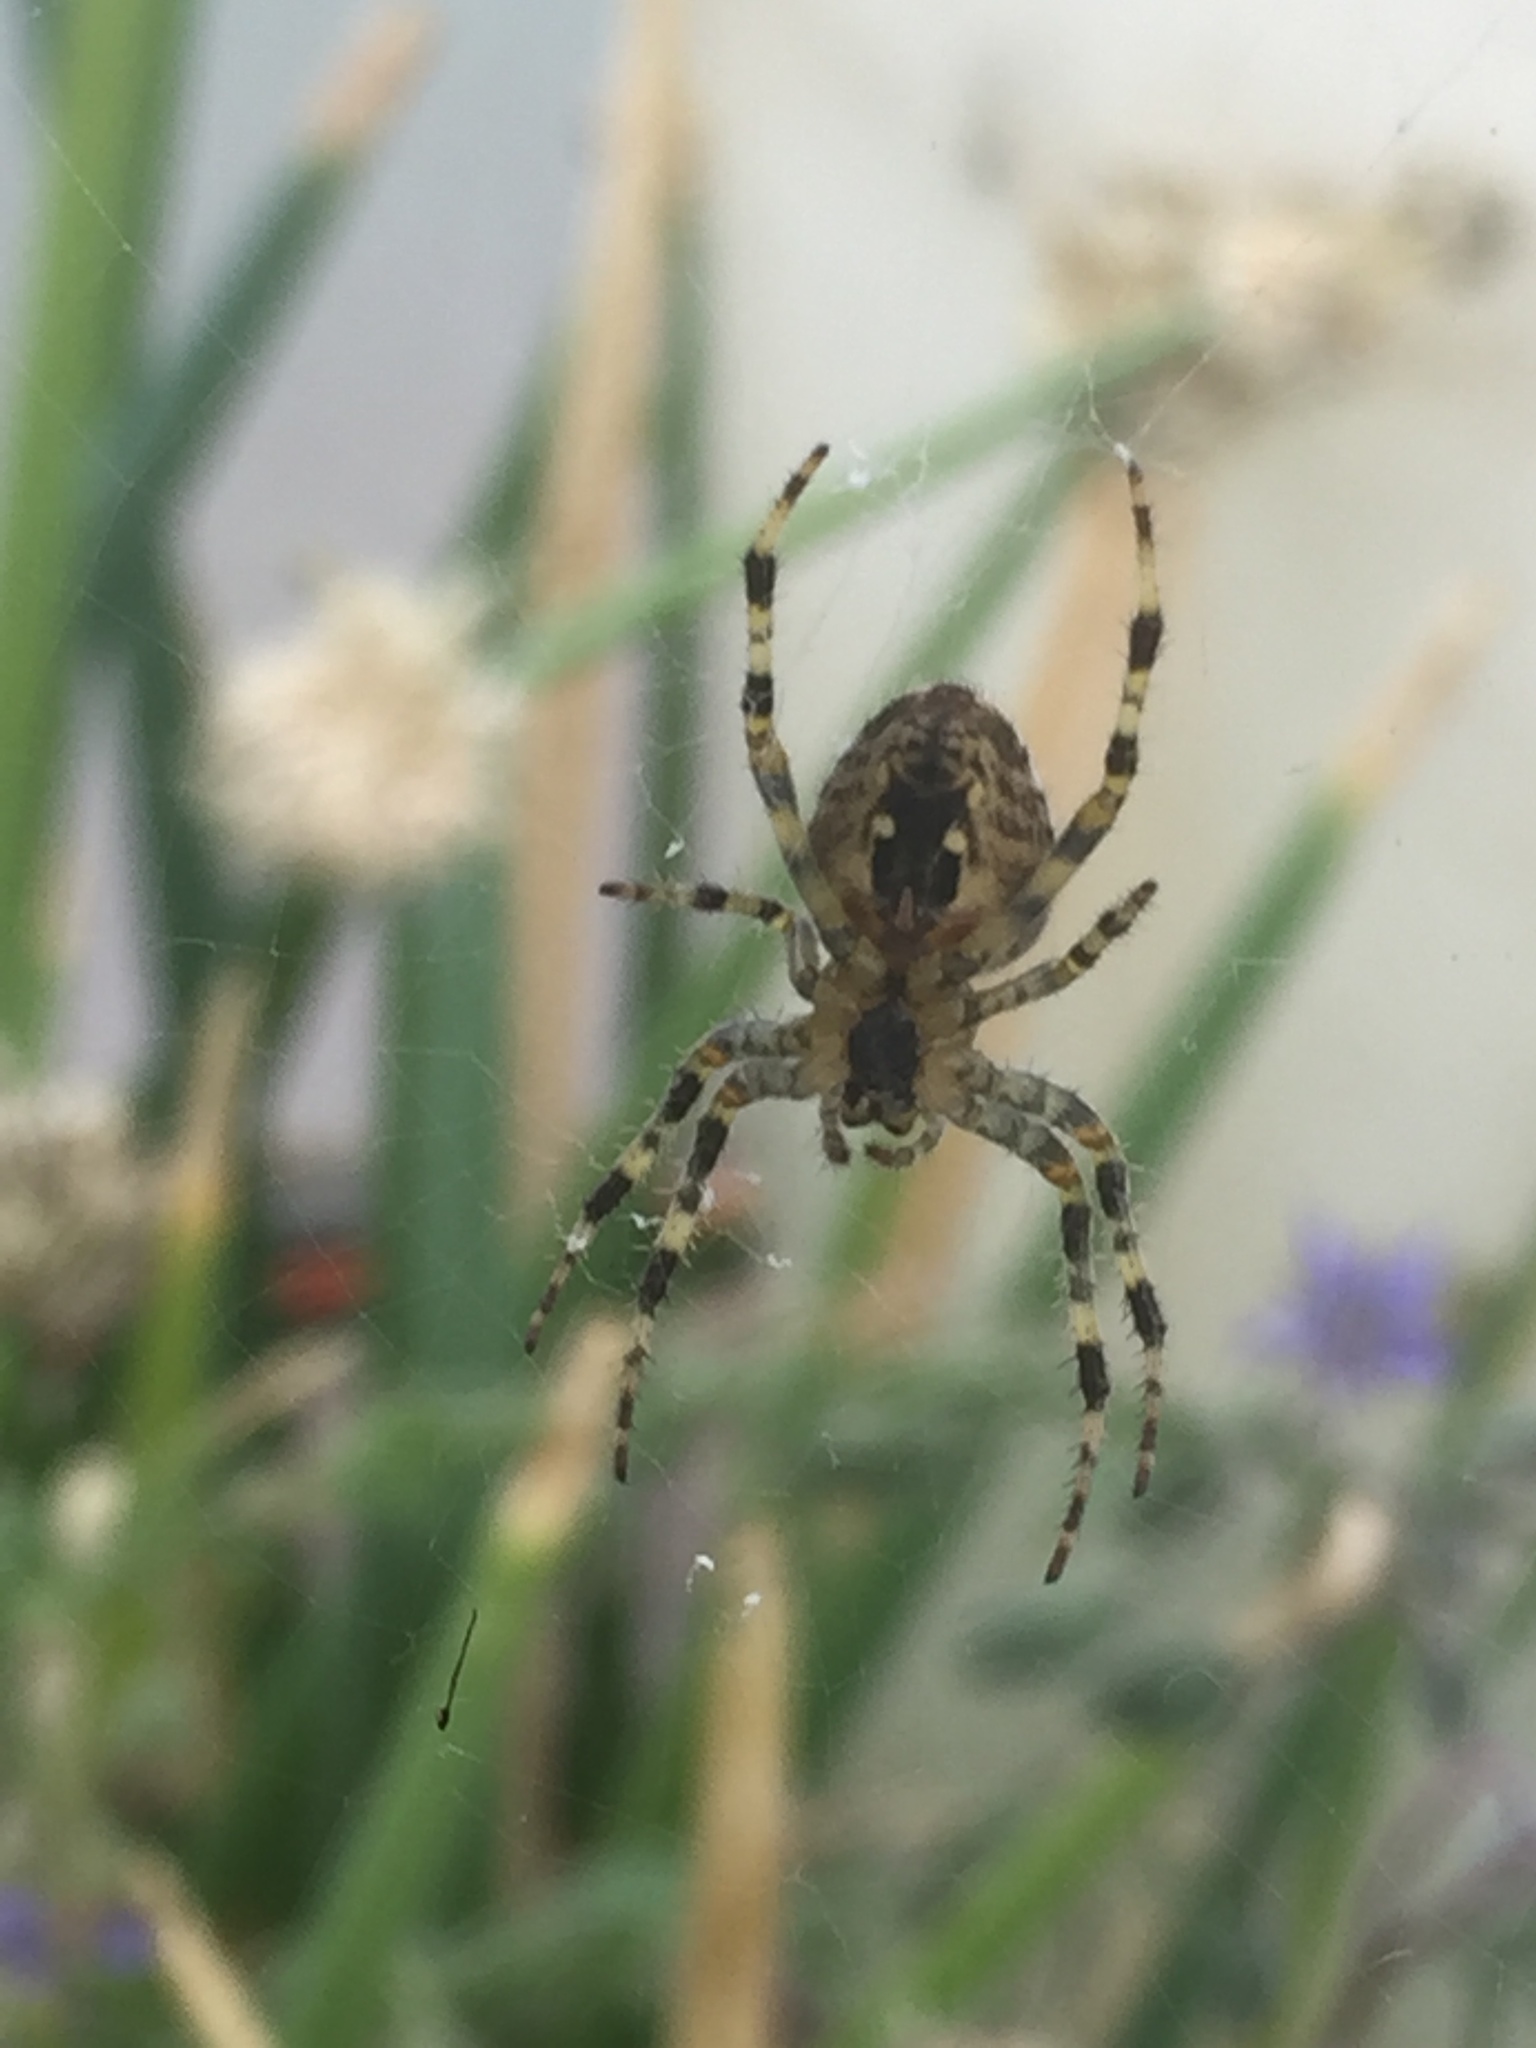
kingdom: Animalia
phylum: Arthropoda
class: Arachnida
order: Araneae
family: Araneidae
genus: Araneus
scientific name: Araneus diadematus
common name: Cross orbweaver
